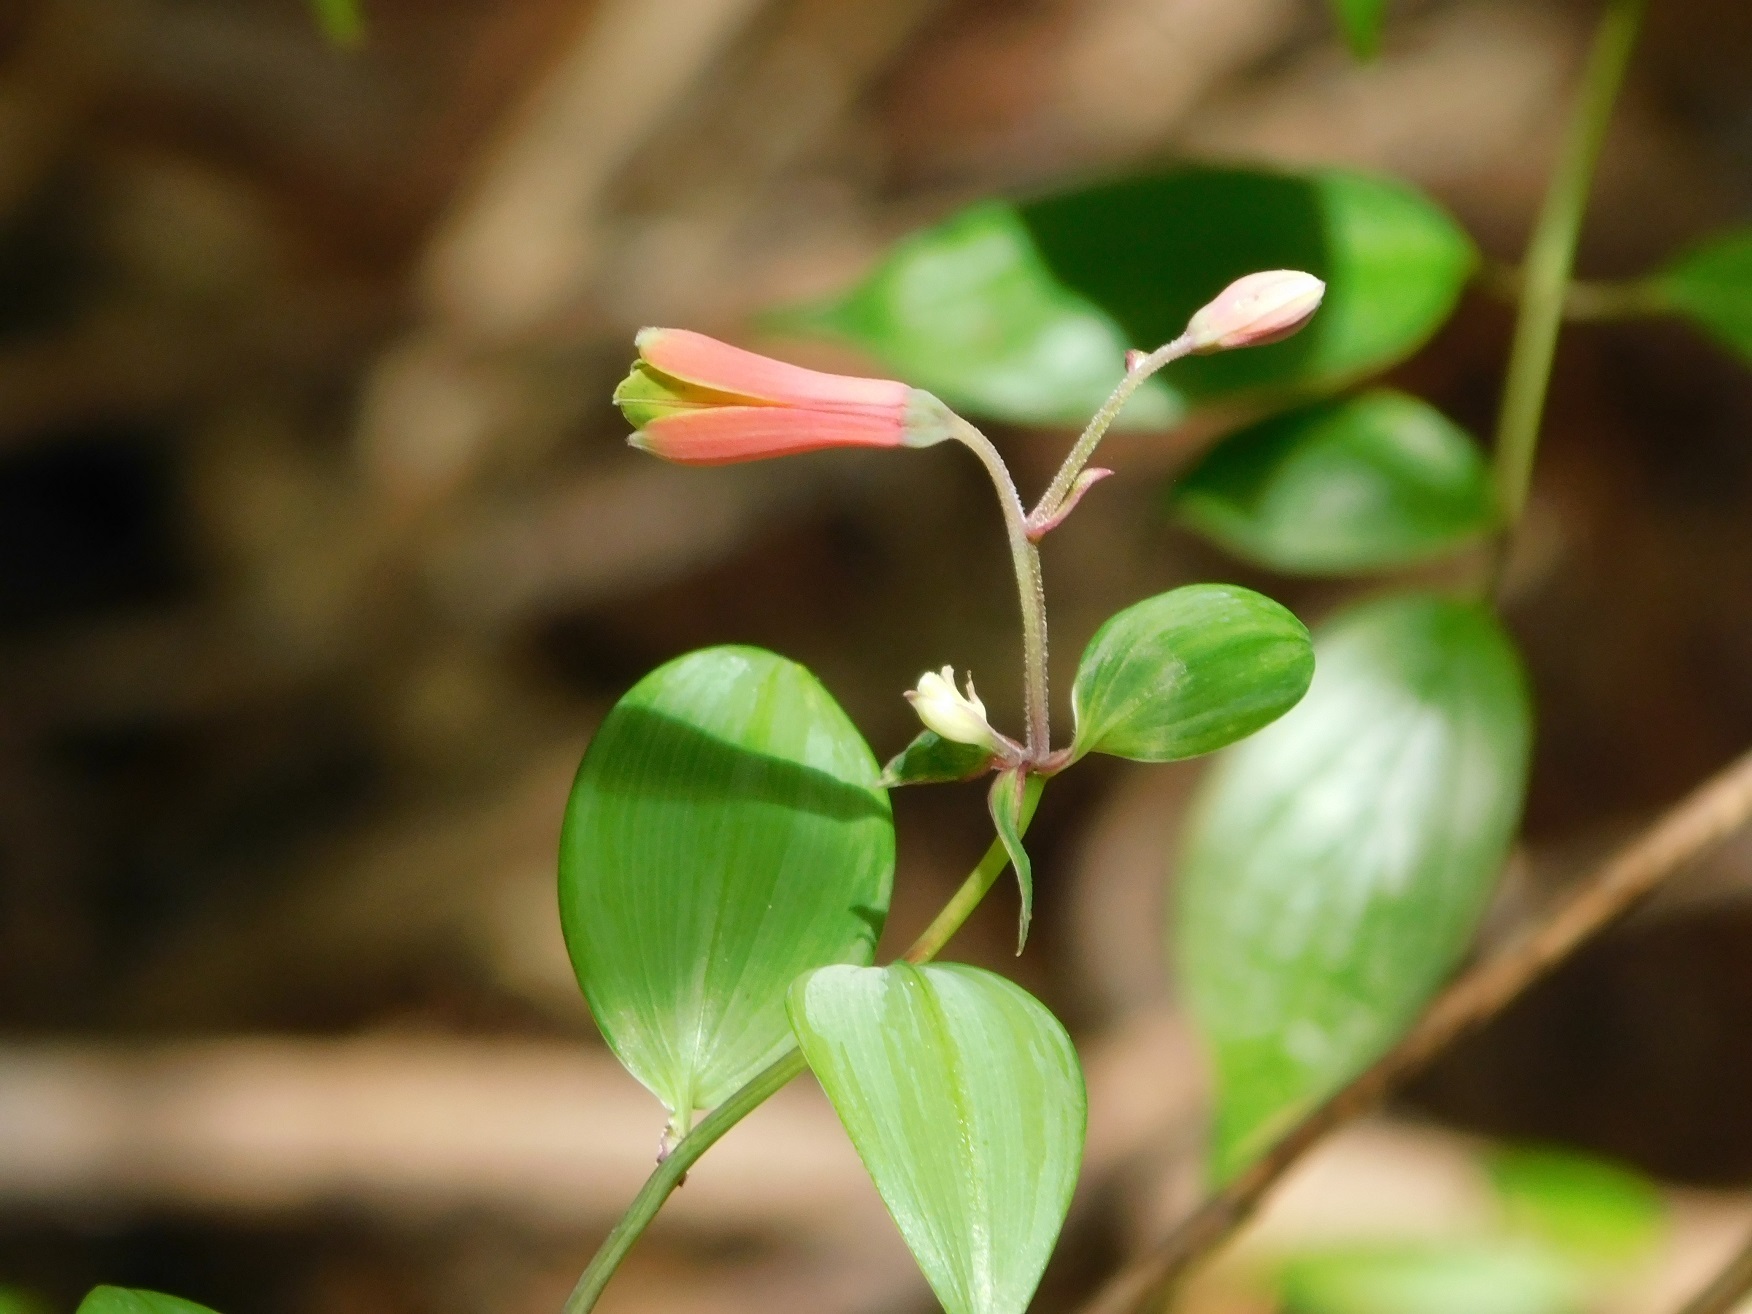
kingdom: Plantae
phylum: Tracheophyta
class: Liliopsida
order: Liliales
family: Alstroemeriaceae
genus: Bomarea
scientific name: Bomarea edulis
